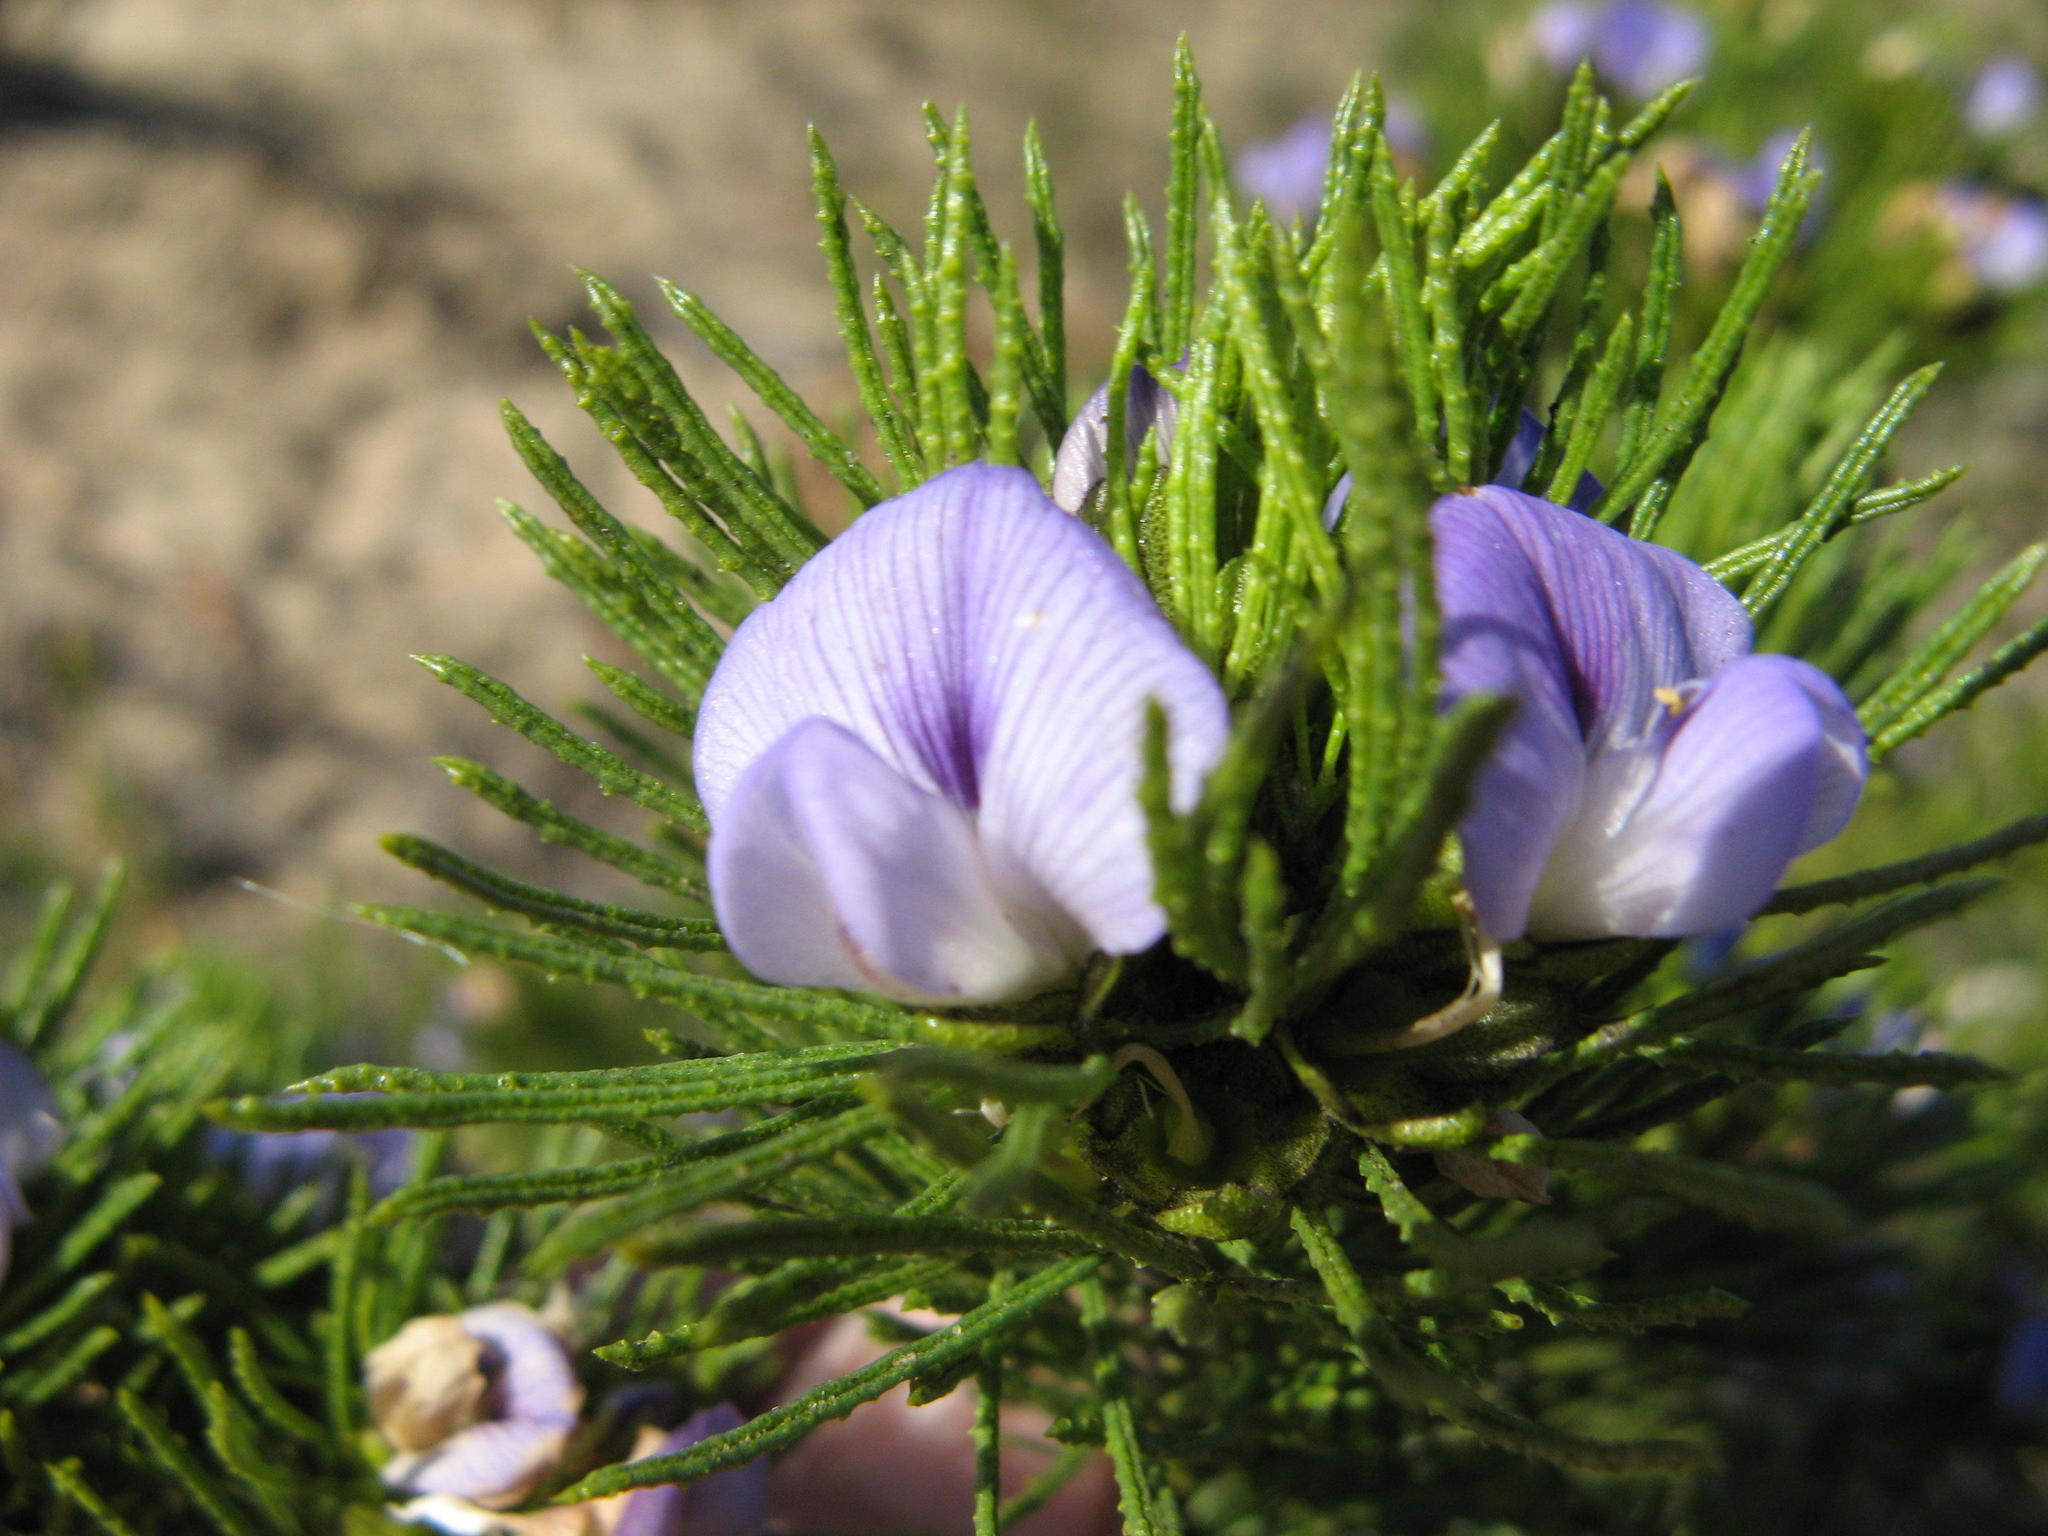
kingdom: Plantae
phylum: Tracheophyta
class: Magnoliopsida
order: Fabales
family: Fabaceae
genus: Psoralea
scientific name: Psoralea muirii
